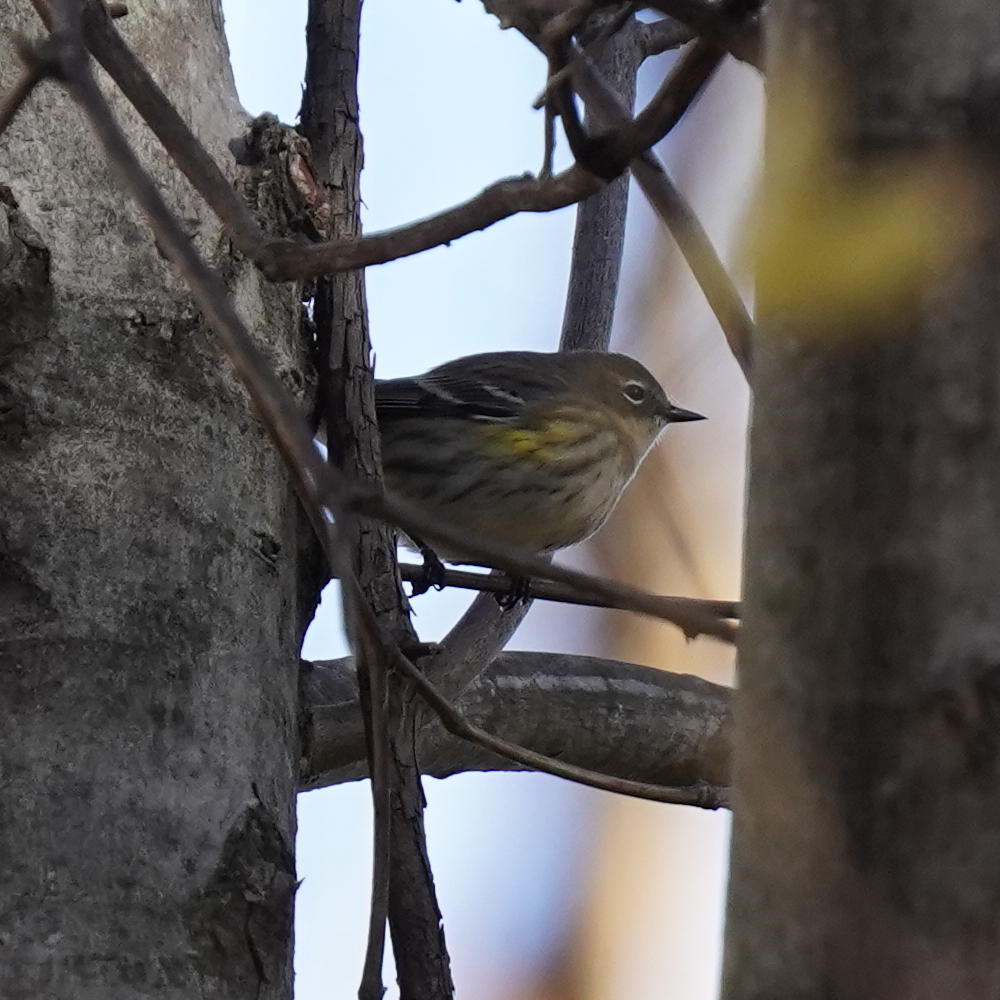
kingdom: Animalia
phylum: Chordata
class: Aves
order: Passeriformes
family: Parulidae
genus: Setophaga
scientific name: Setophaga coronata
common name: Myrtle warbler
